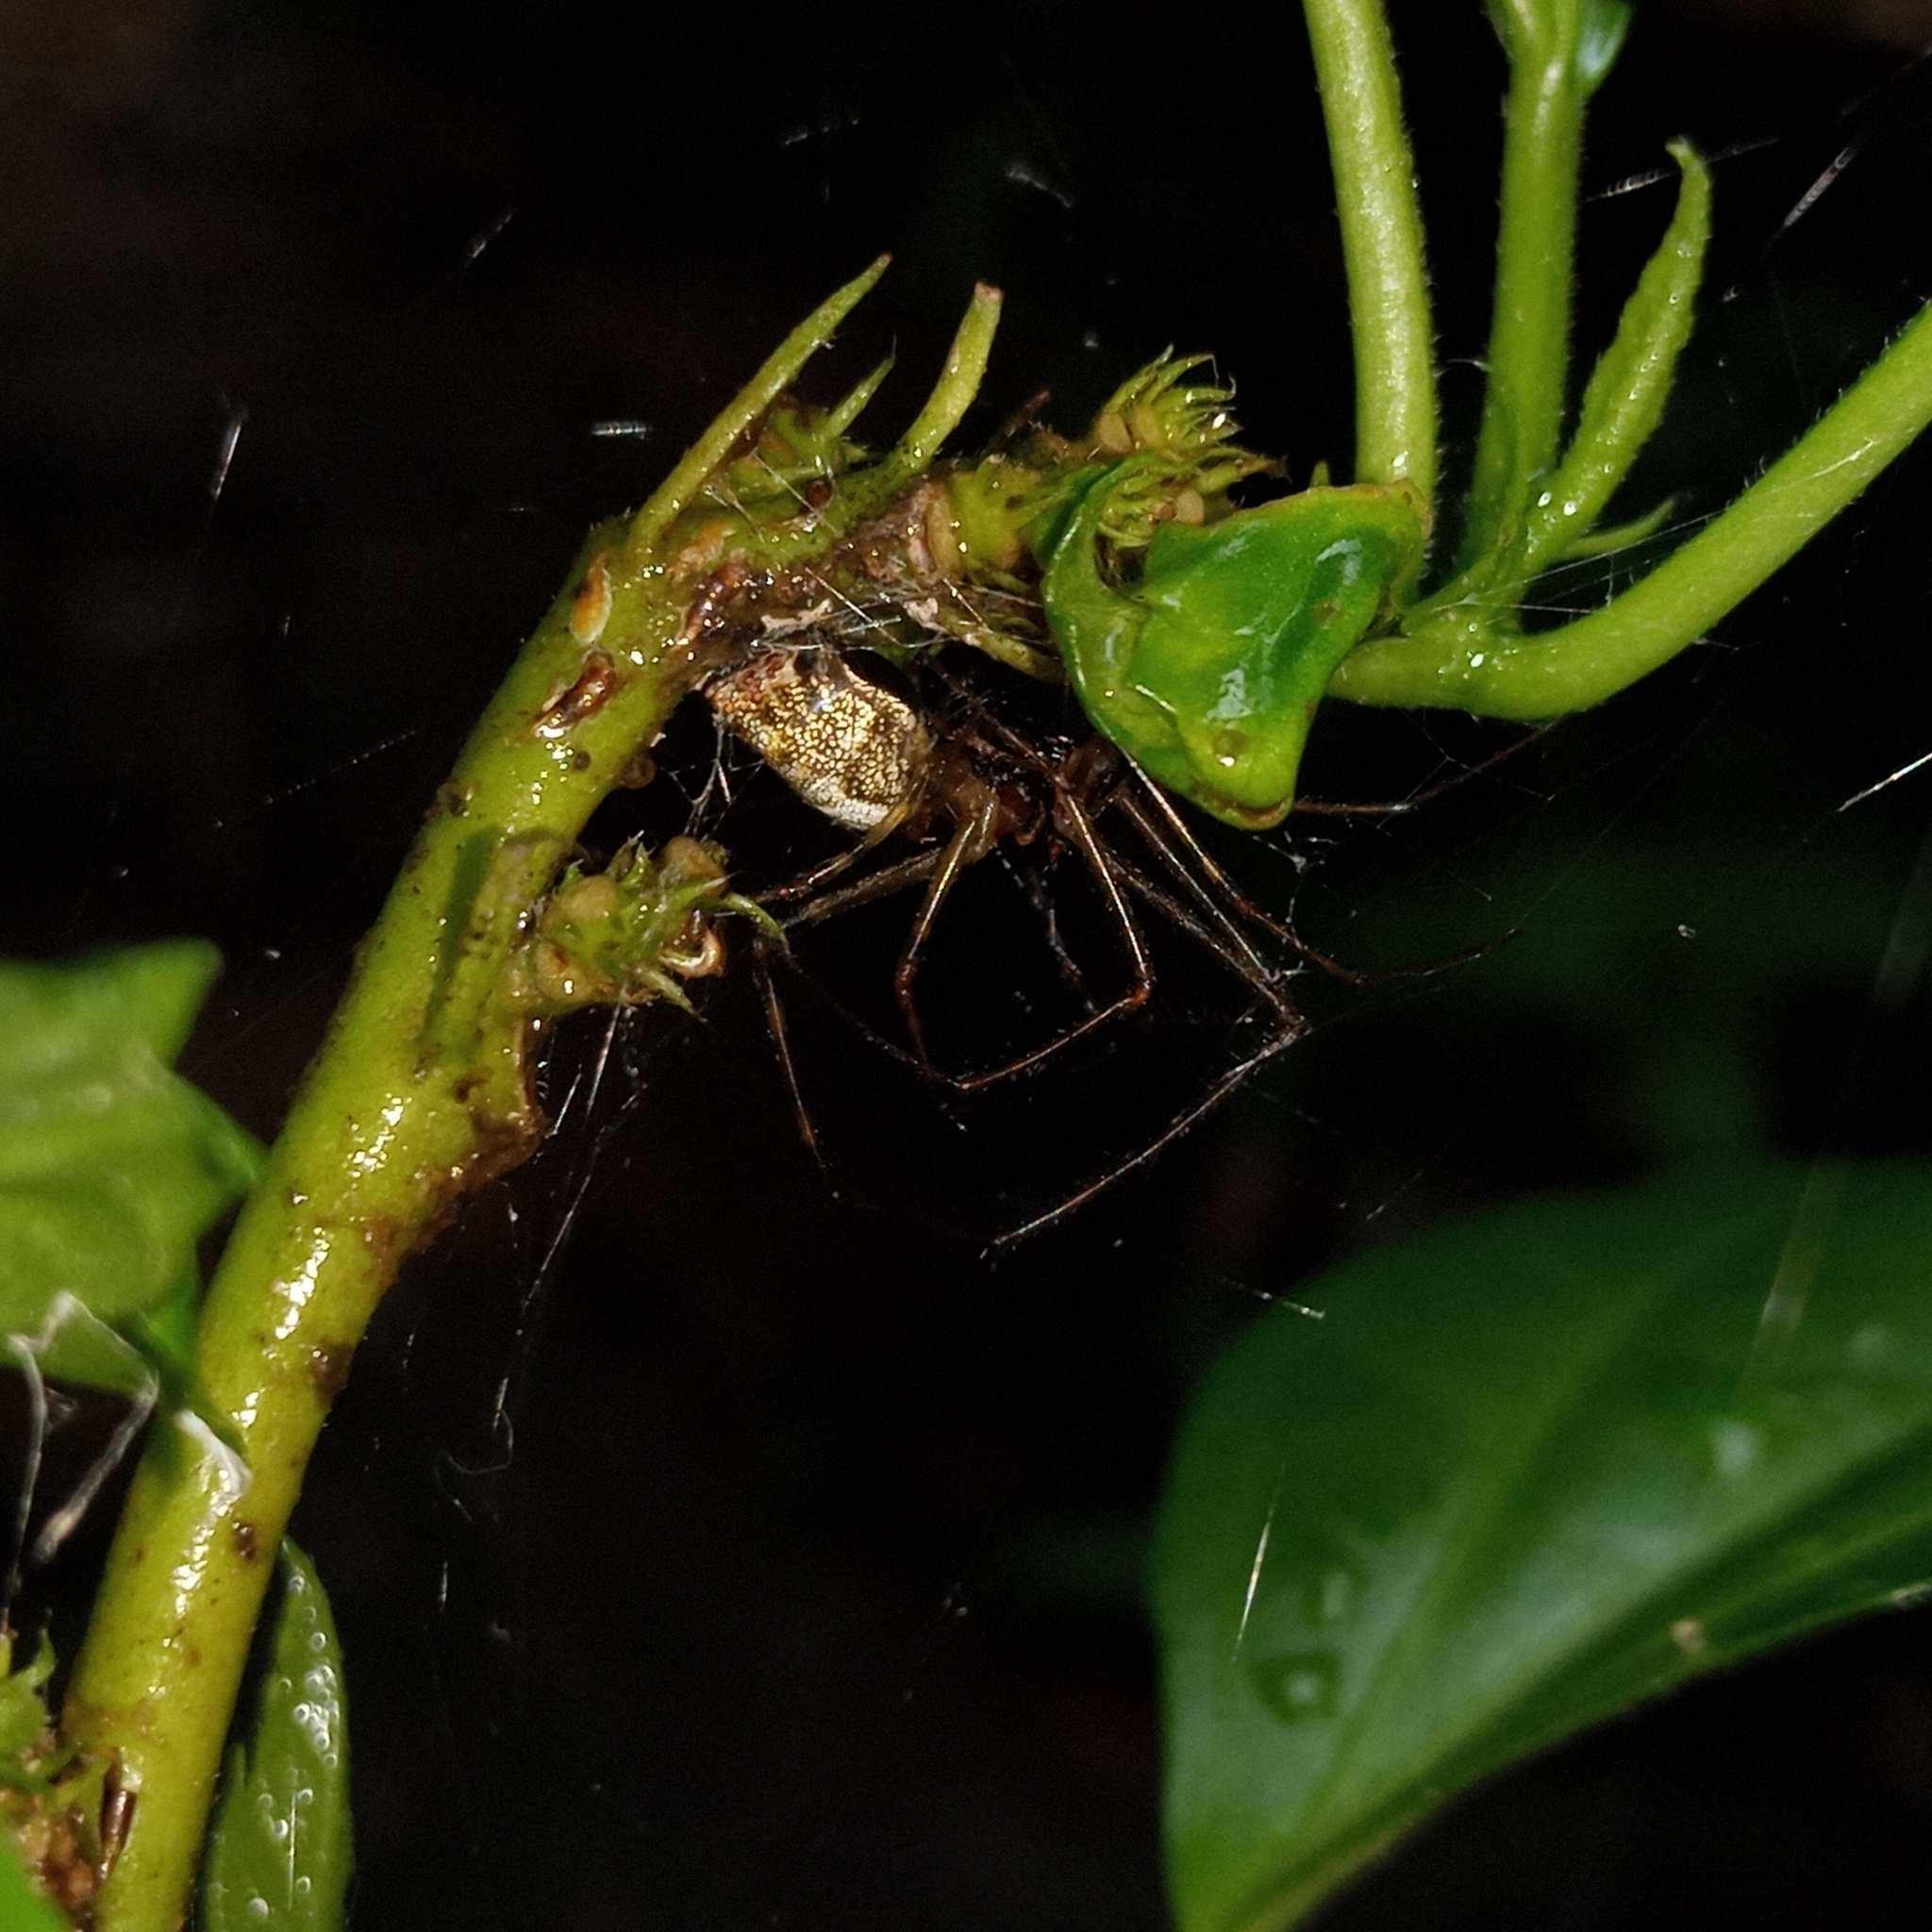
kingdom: Animalia
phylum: Arthropoda
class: Arachnida
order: Araneae
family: Tetragnathidae
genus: Tylorida
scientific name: Tylorida ventralis
